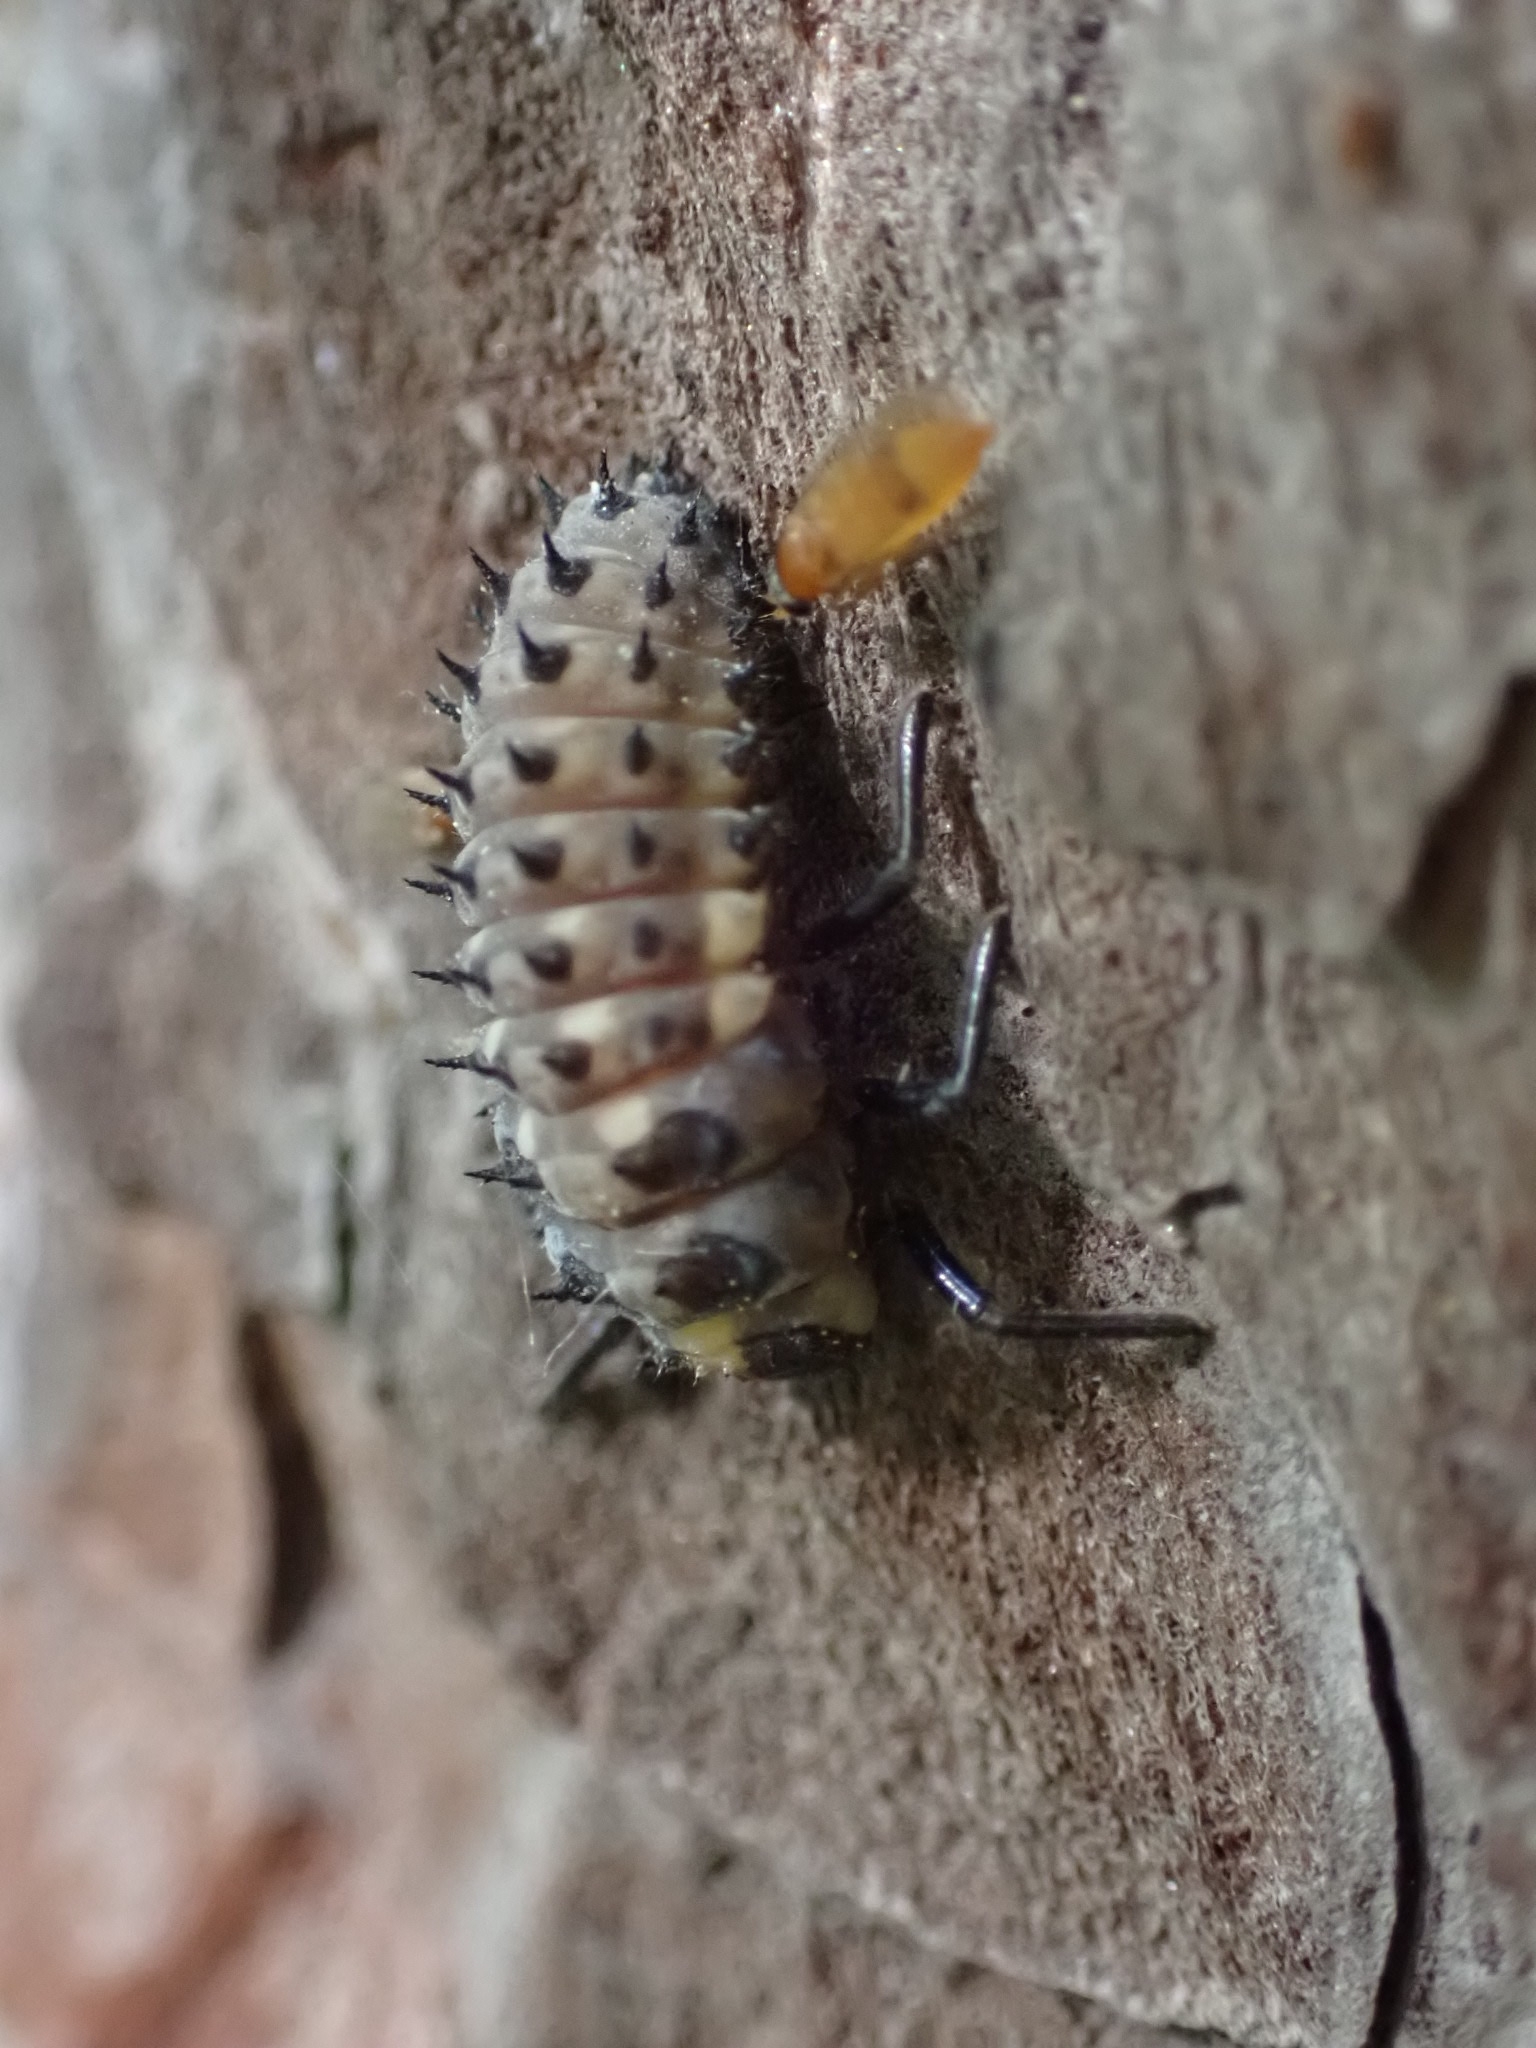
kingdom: Animalia
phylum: Arthropoda
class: Insecta
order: Coleoptera
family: Coccinellidae
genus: Anatis
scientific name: Anatis ocellata
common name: Eyed ladybird
